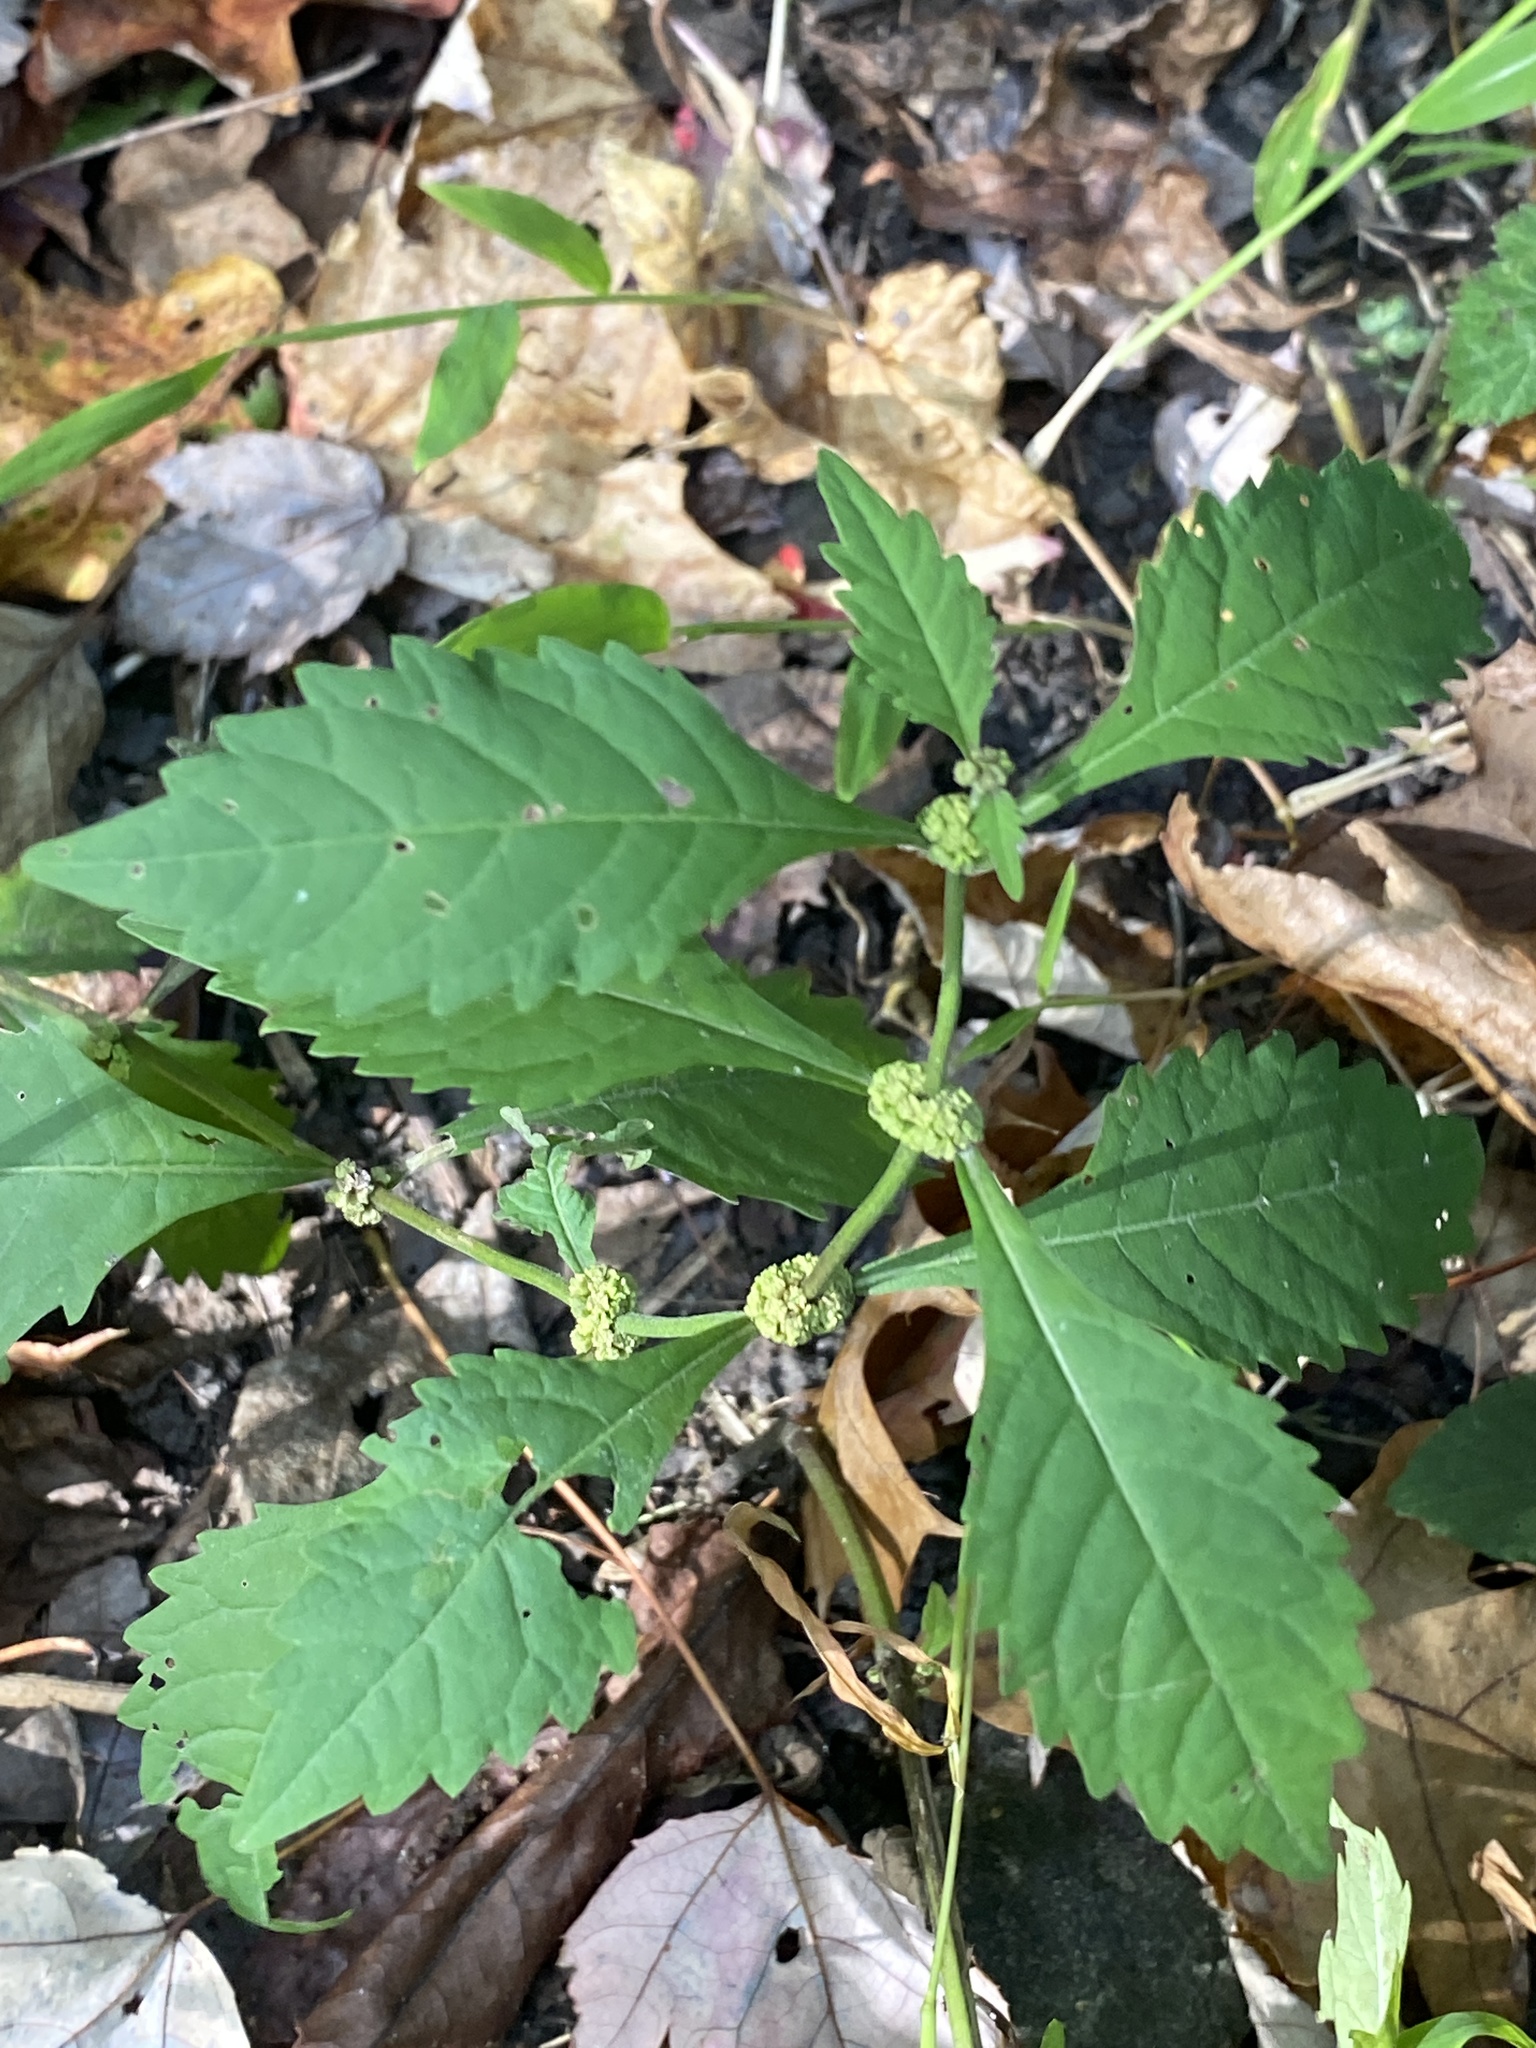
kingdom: Plantae
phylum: Tracheophyta
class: Magnoliopsida
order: Lamiales
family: Lamiaceae
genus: Lycopus
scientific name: Lycopus virginicus
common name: Bugleweed
